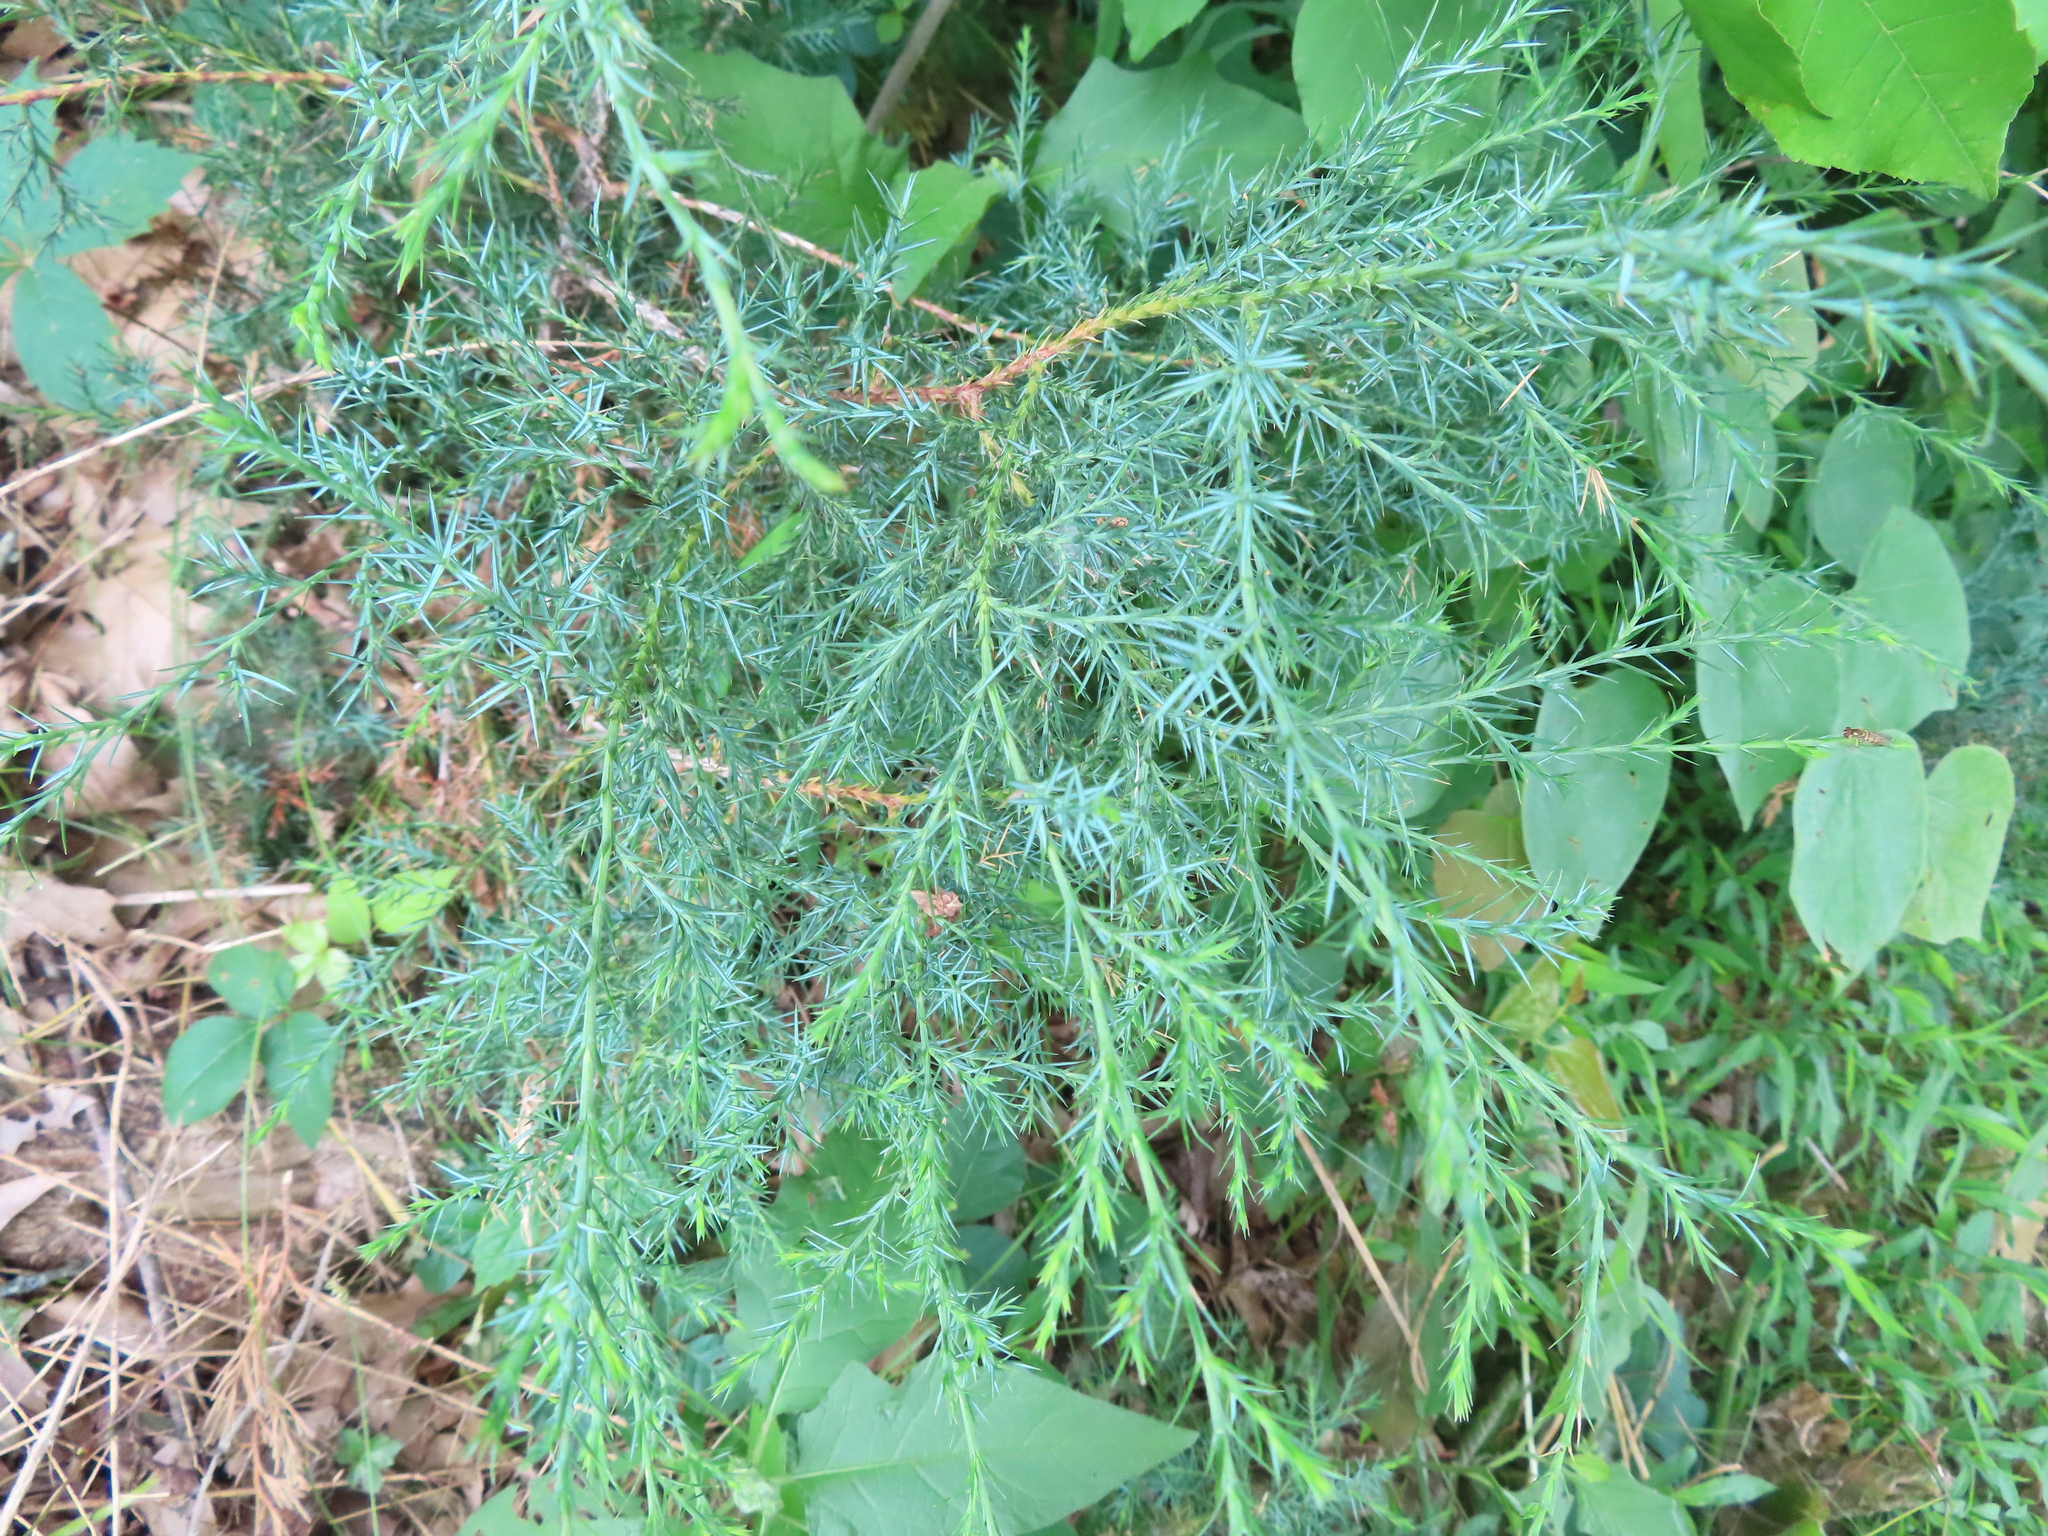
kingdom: Plantae
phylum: Tracheophyta
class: Pinopsida
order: Pinales
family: Cupressaceae
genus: Juniperus
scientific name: Juniperus virginiana
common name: Red juniper
